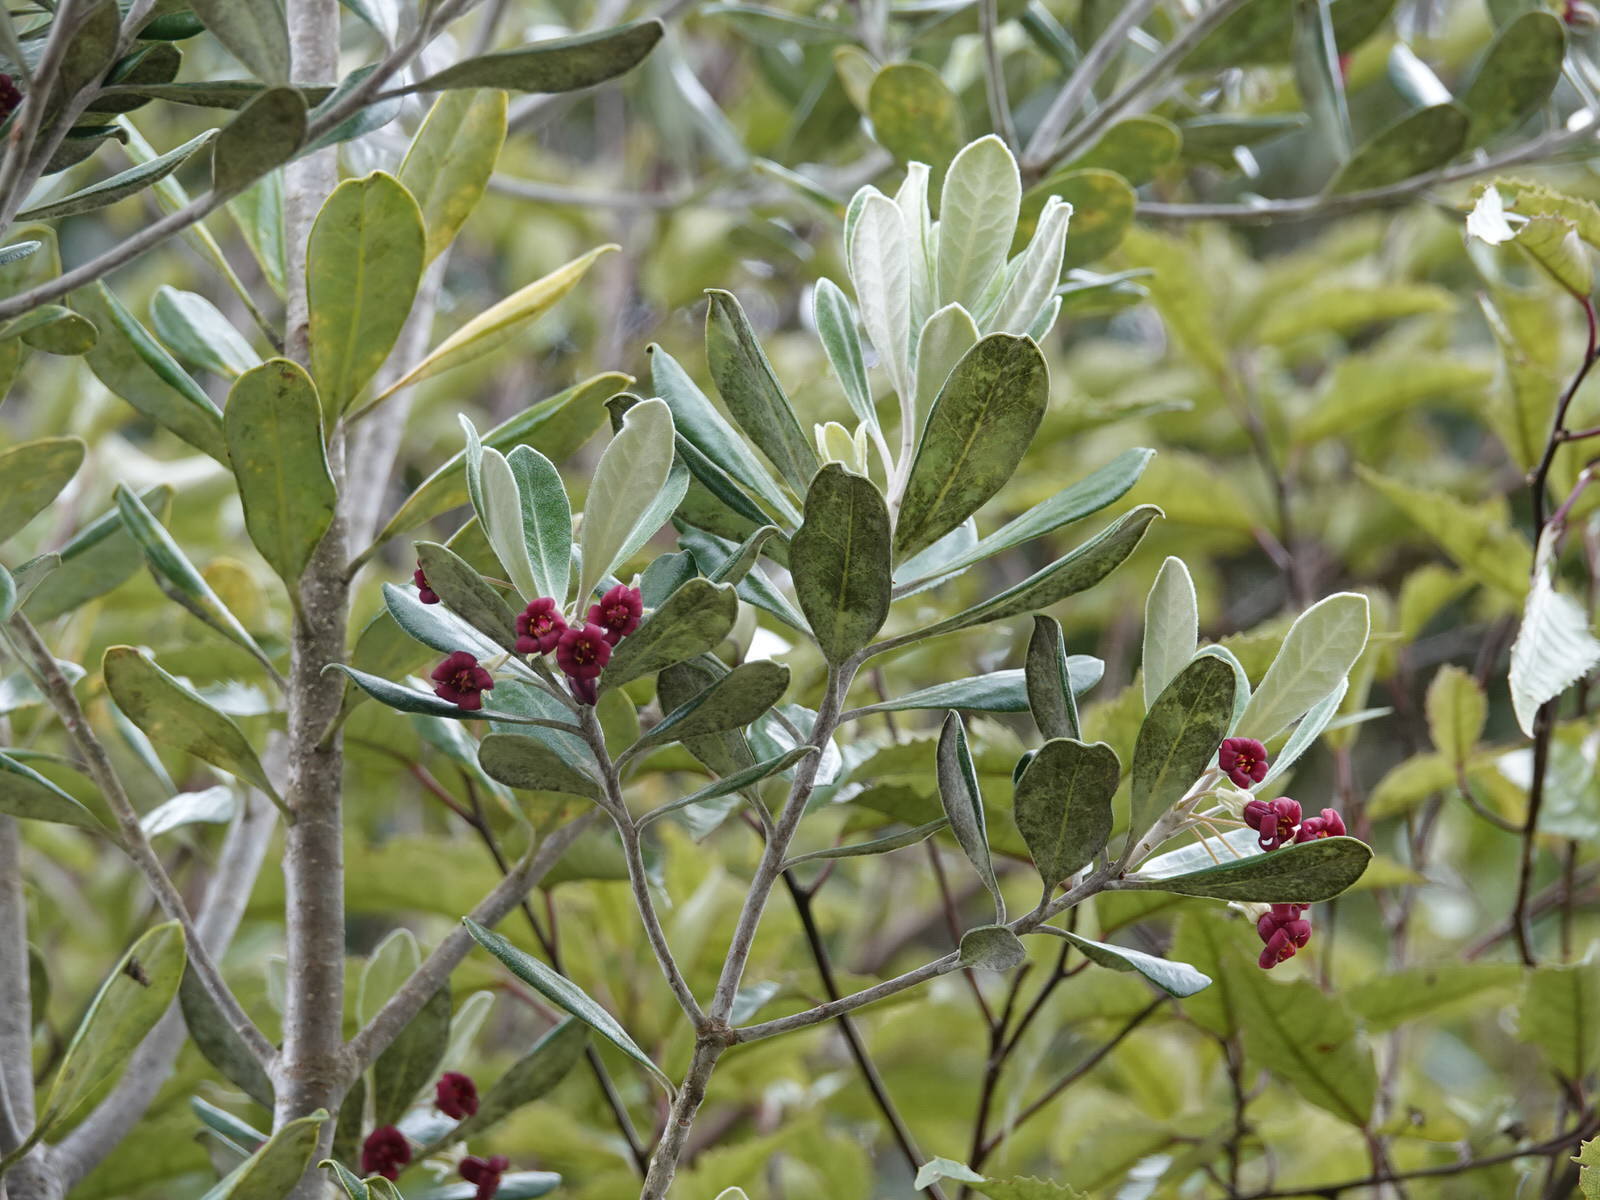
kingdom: Plantae
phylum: Tracheophyta
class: Magnoliopsida
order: Apiales
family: Pittosporaceae
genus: Pittosporum
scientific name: Pittosporum crassifolium
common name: Karo
